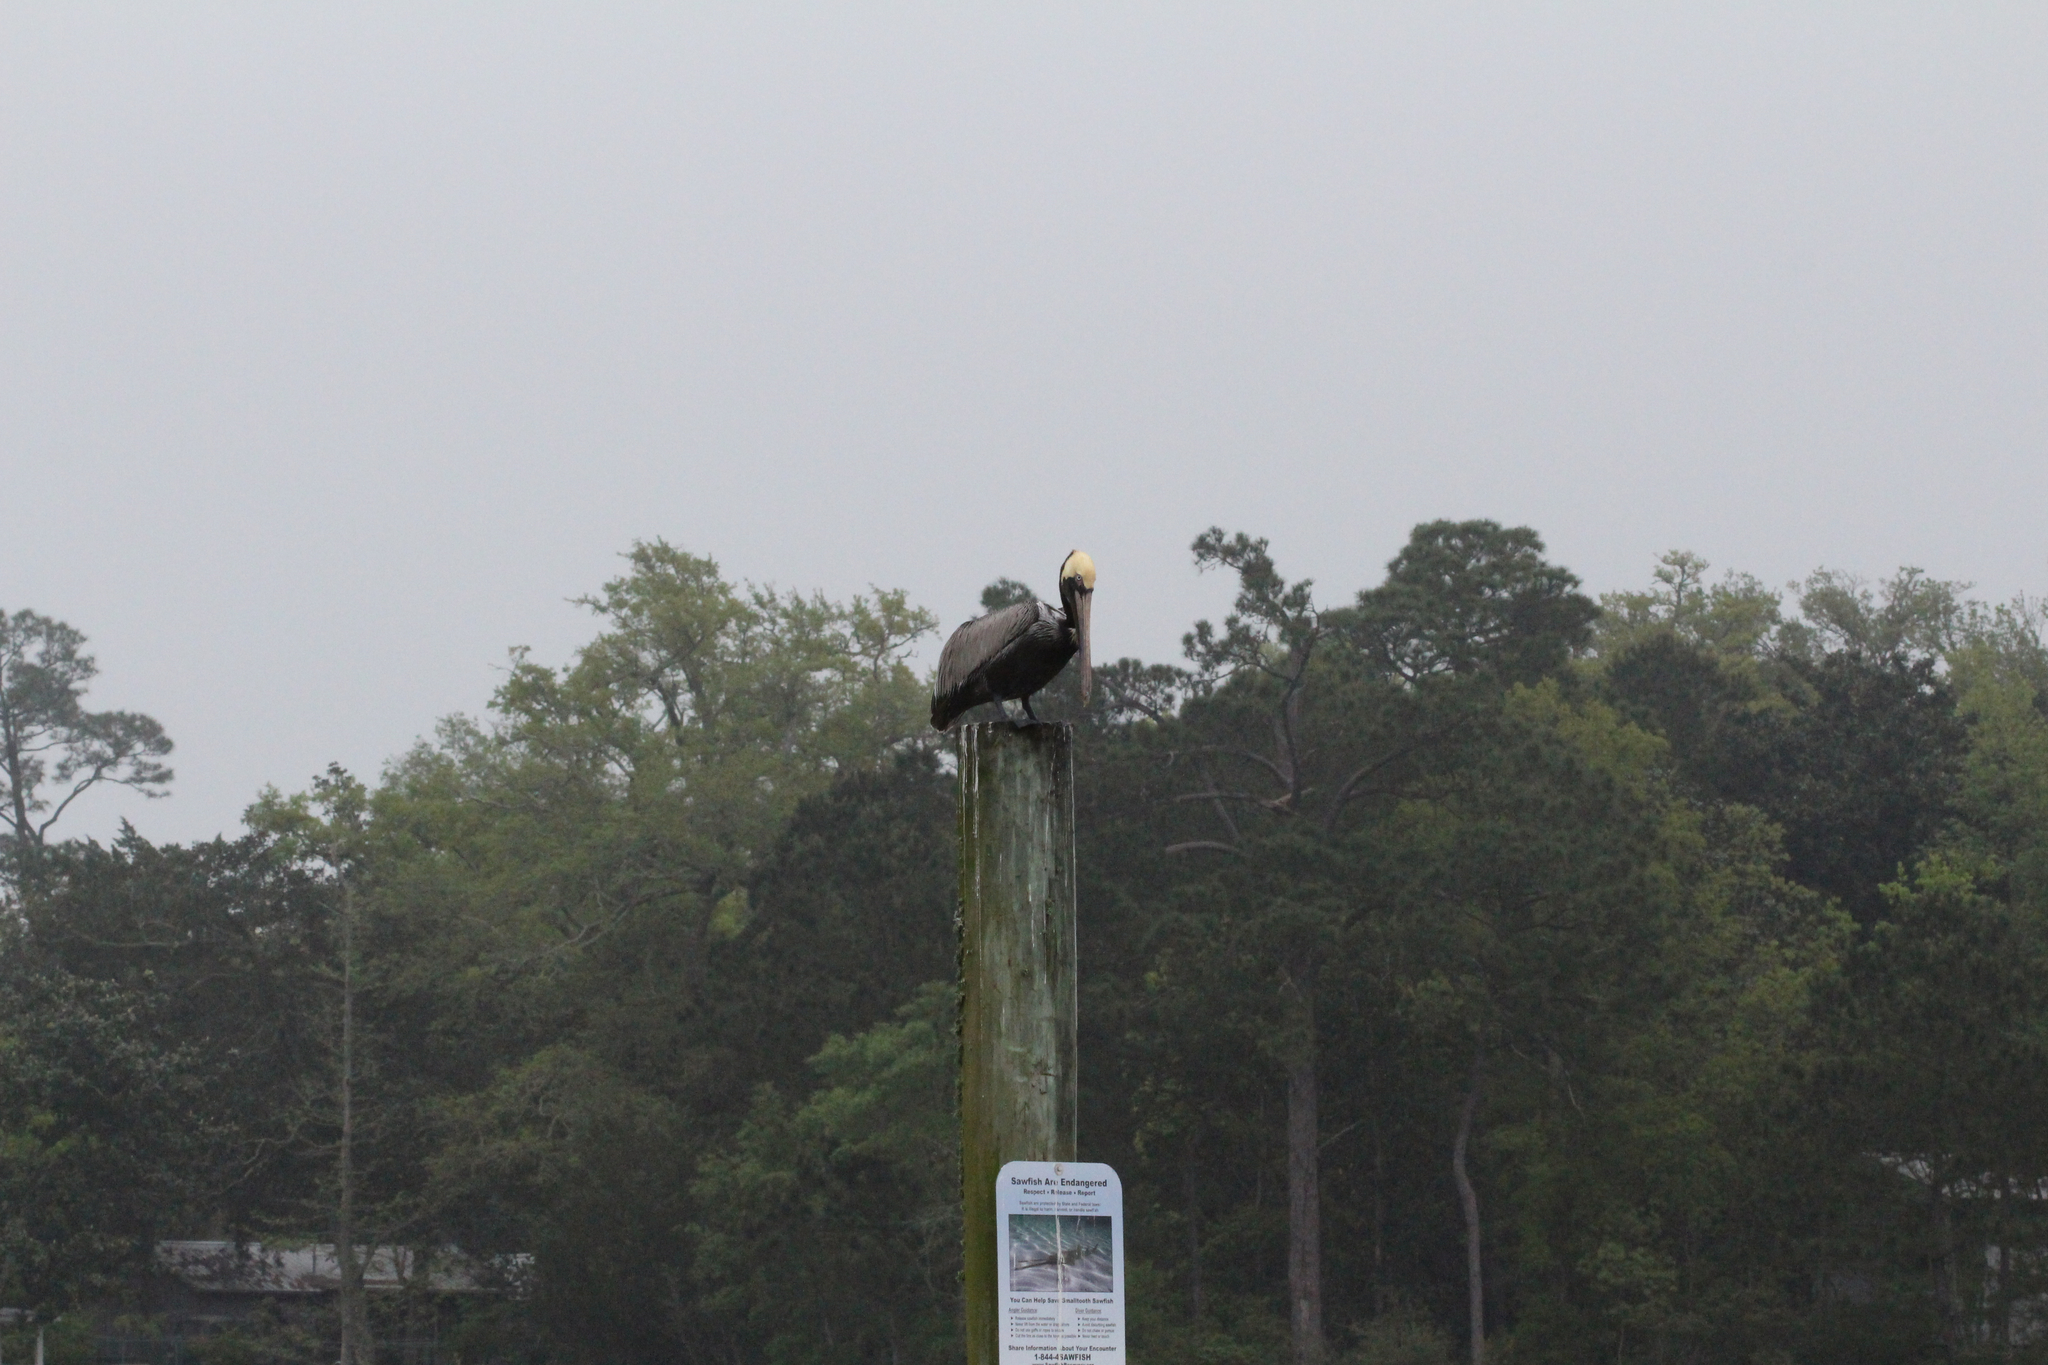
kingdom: Animalia
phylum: Chordata
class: Aves
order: Pelecaniformes
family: Pelecanidae
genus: Pelecanus
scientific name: Pelecanus occidentalis
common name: Brown pelican
